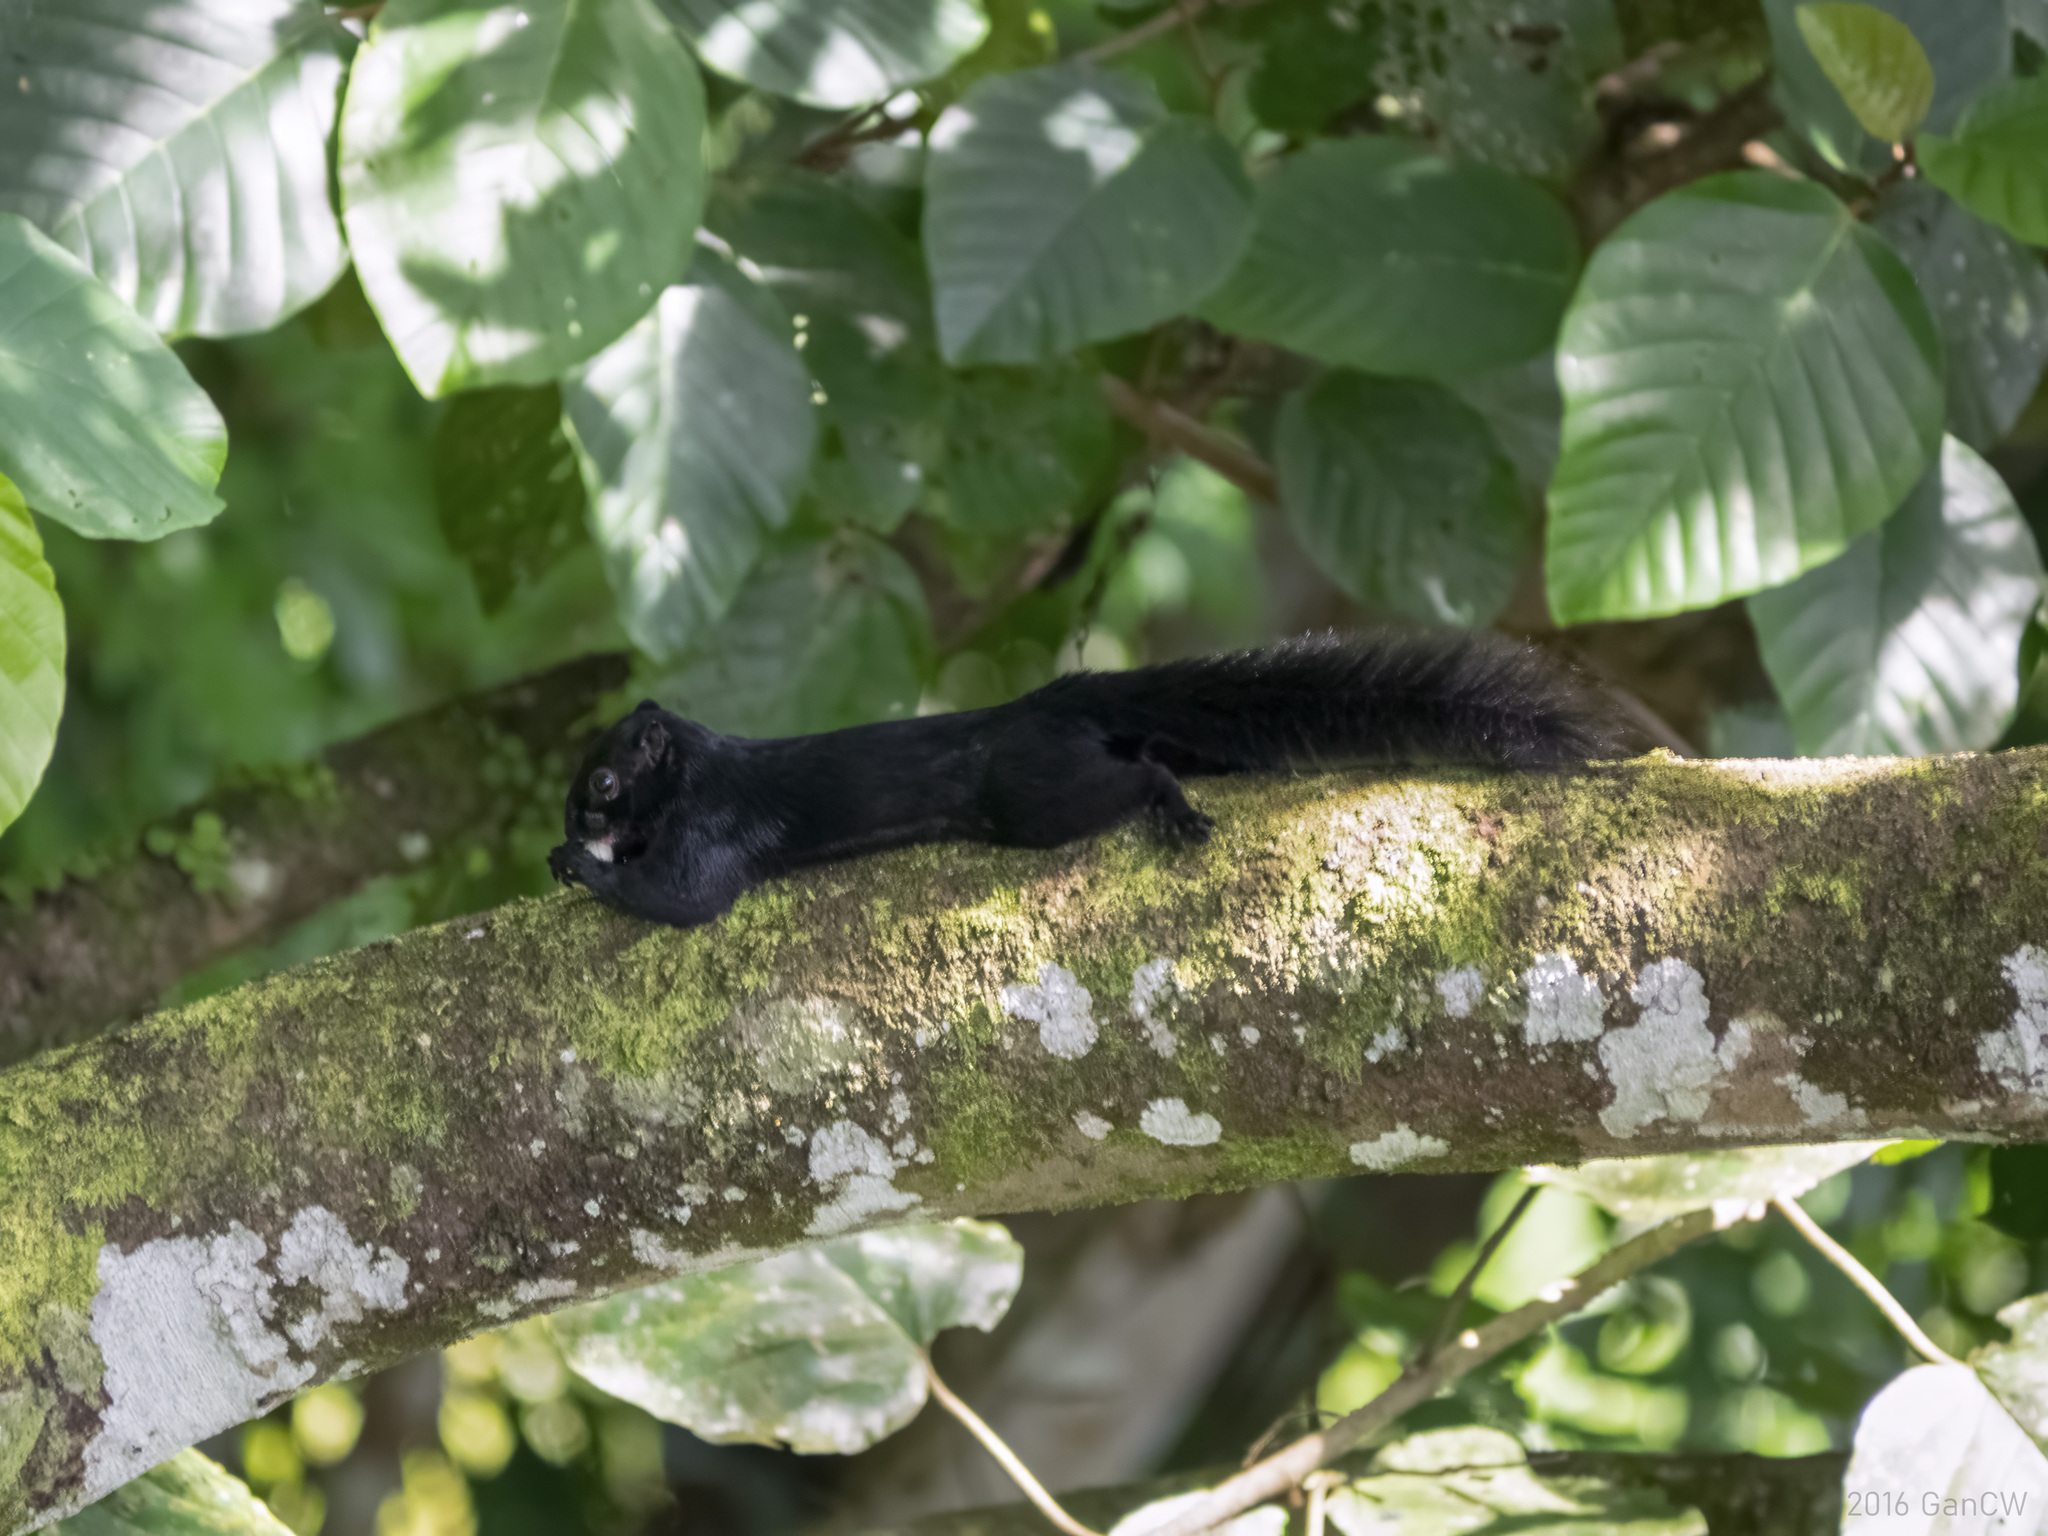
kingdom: Animalia
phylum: Chordata
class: Mammalia
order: Rodentia
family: Sciuridae
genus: Callosciurus
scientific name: Callosciurus prevostii
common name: Prevost's squirrel
